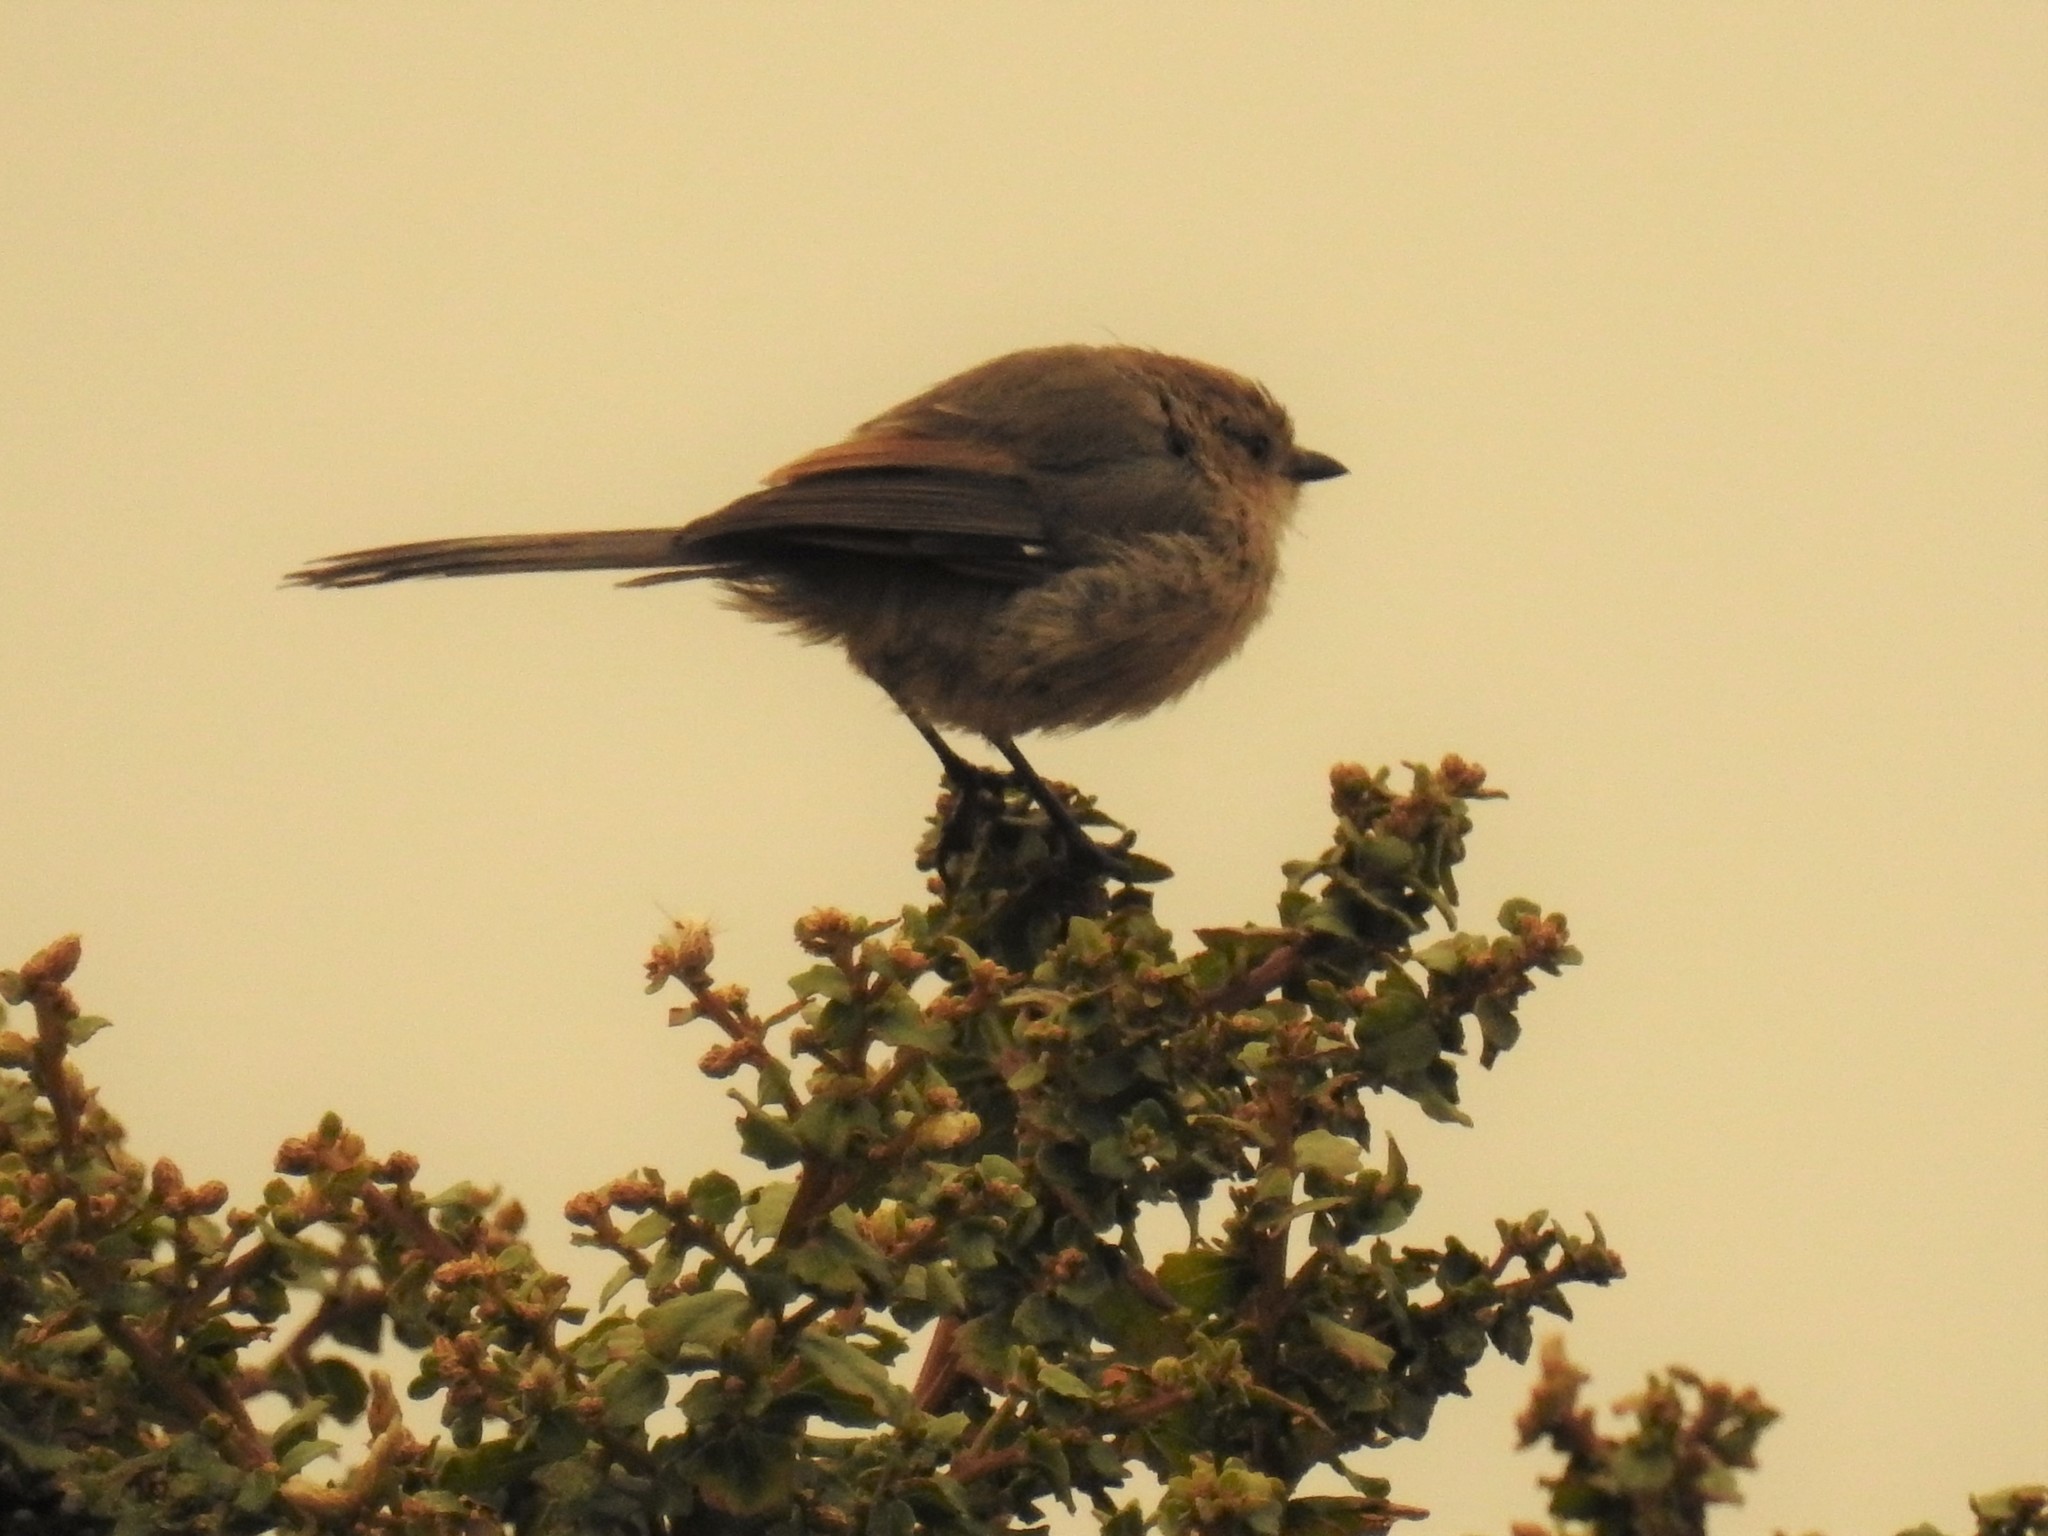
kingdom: Animalia
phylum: Chordata
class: Aves
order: Passeriformes
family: Aegithalidae
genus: Psaltriparus
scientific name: Psaltriparus minimus
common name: American bushtit
